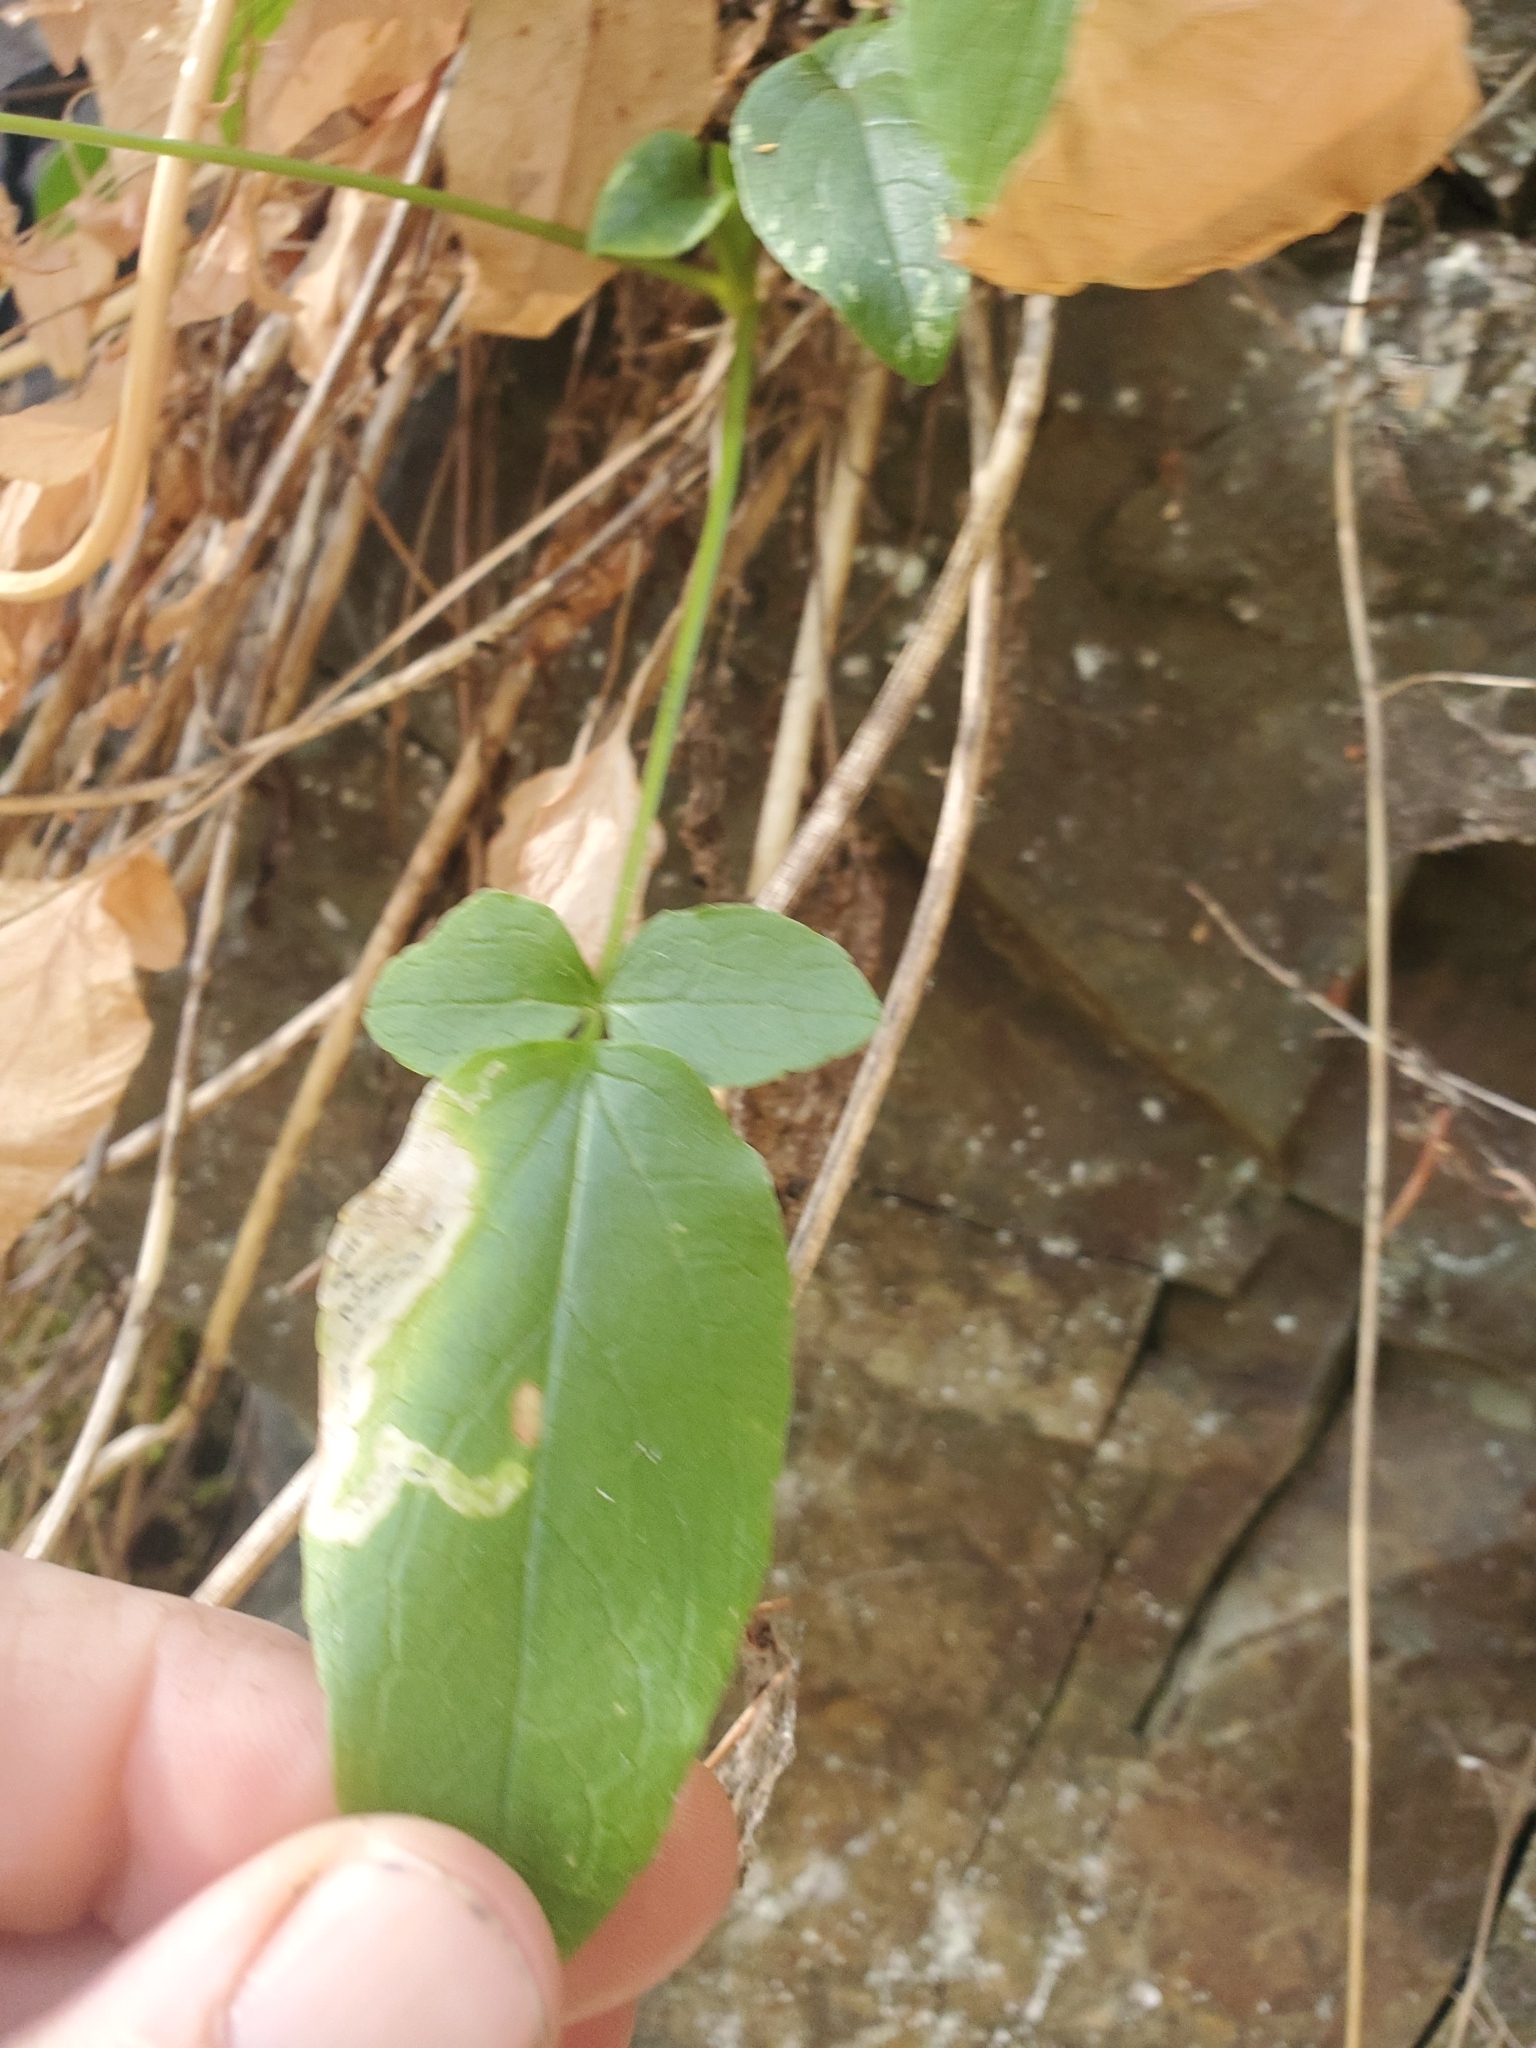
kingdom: Plantae
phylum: Tracheophyta
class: Magnoliopsida
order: Dipsacales
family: Caprifoliaceae
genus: Valeriana
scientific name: Valeriana sitchensis
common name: Pacific valerian
